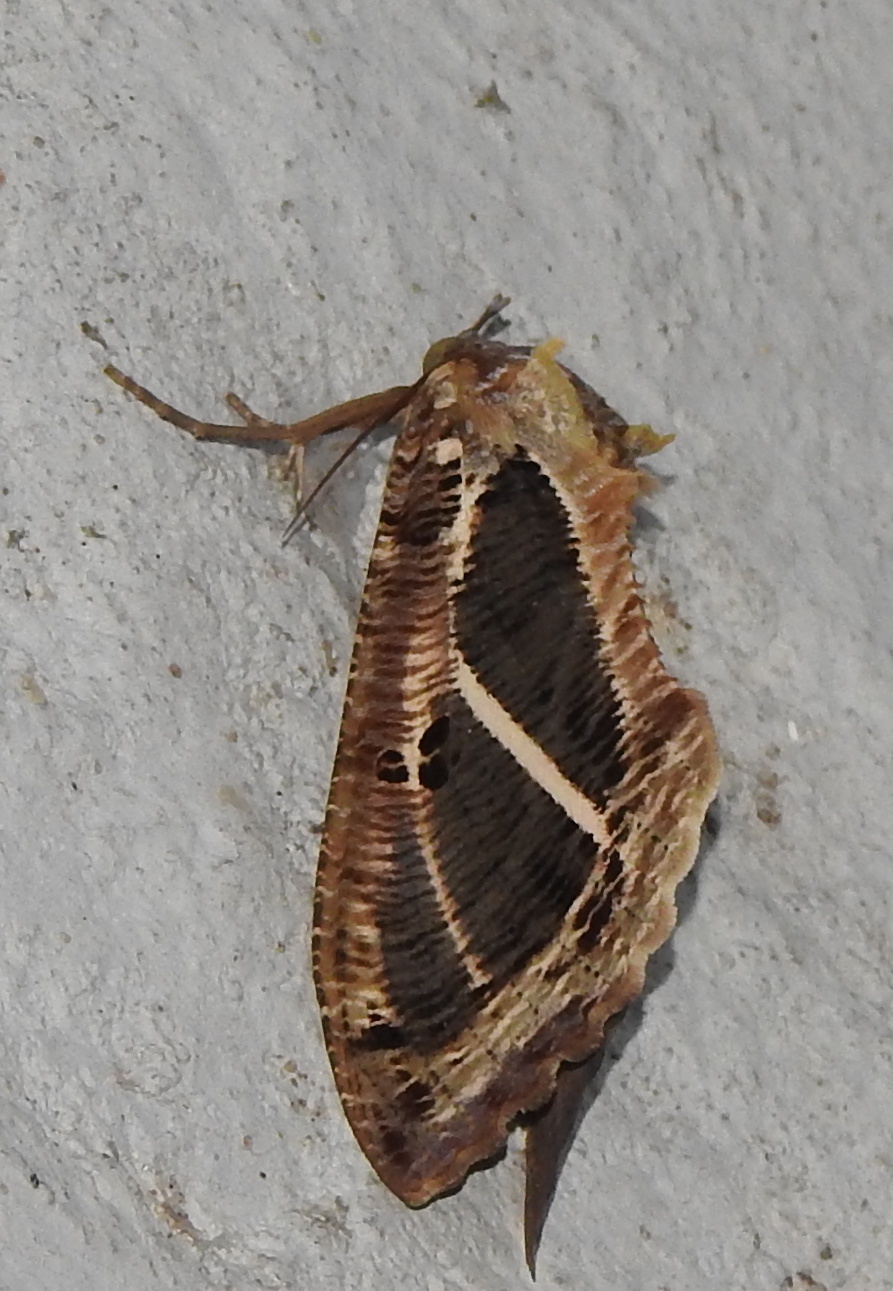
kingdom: Animalia
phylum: Arthropoda
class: Insecta
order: Lepidoptera
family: Erebidae
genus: Eudocima
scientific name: Eudocima materna
